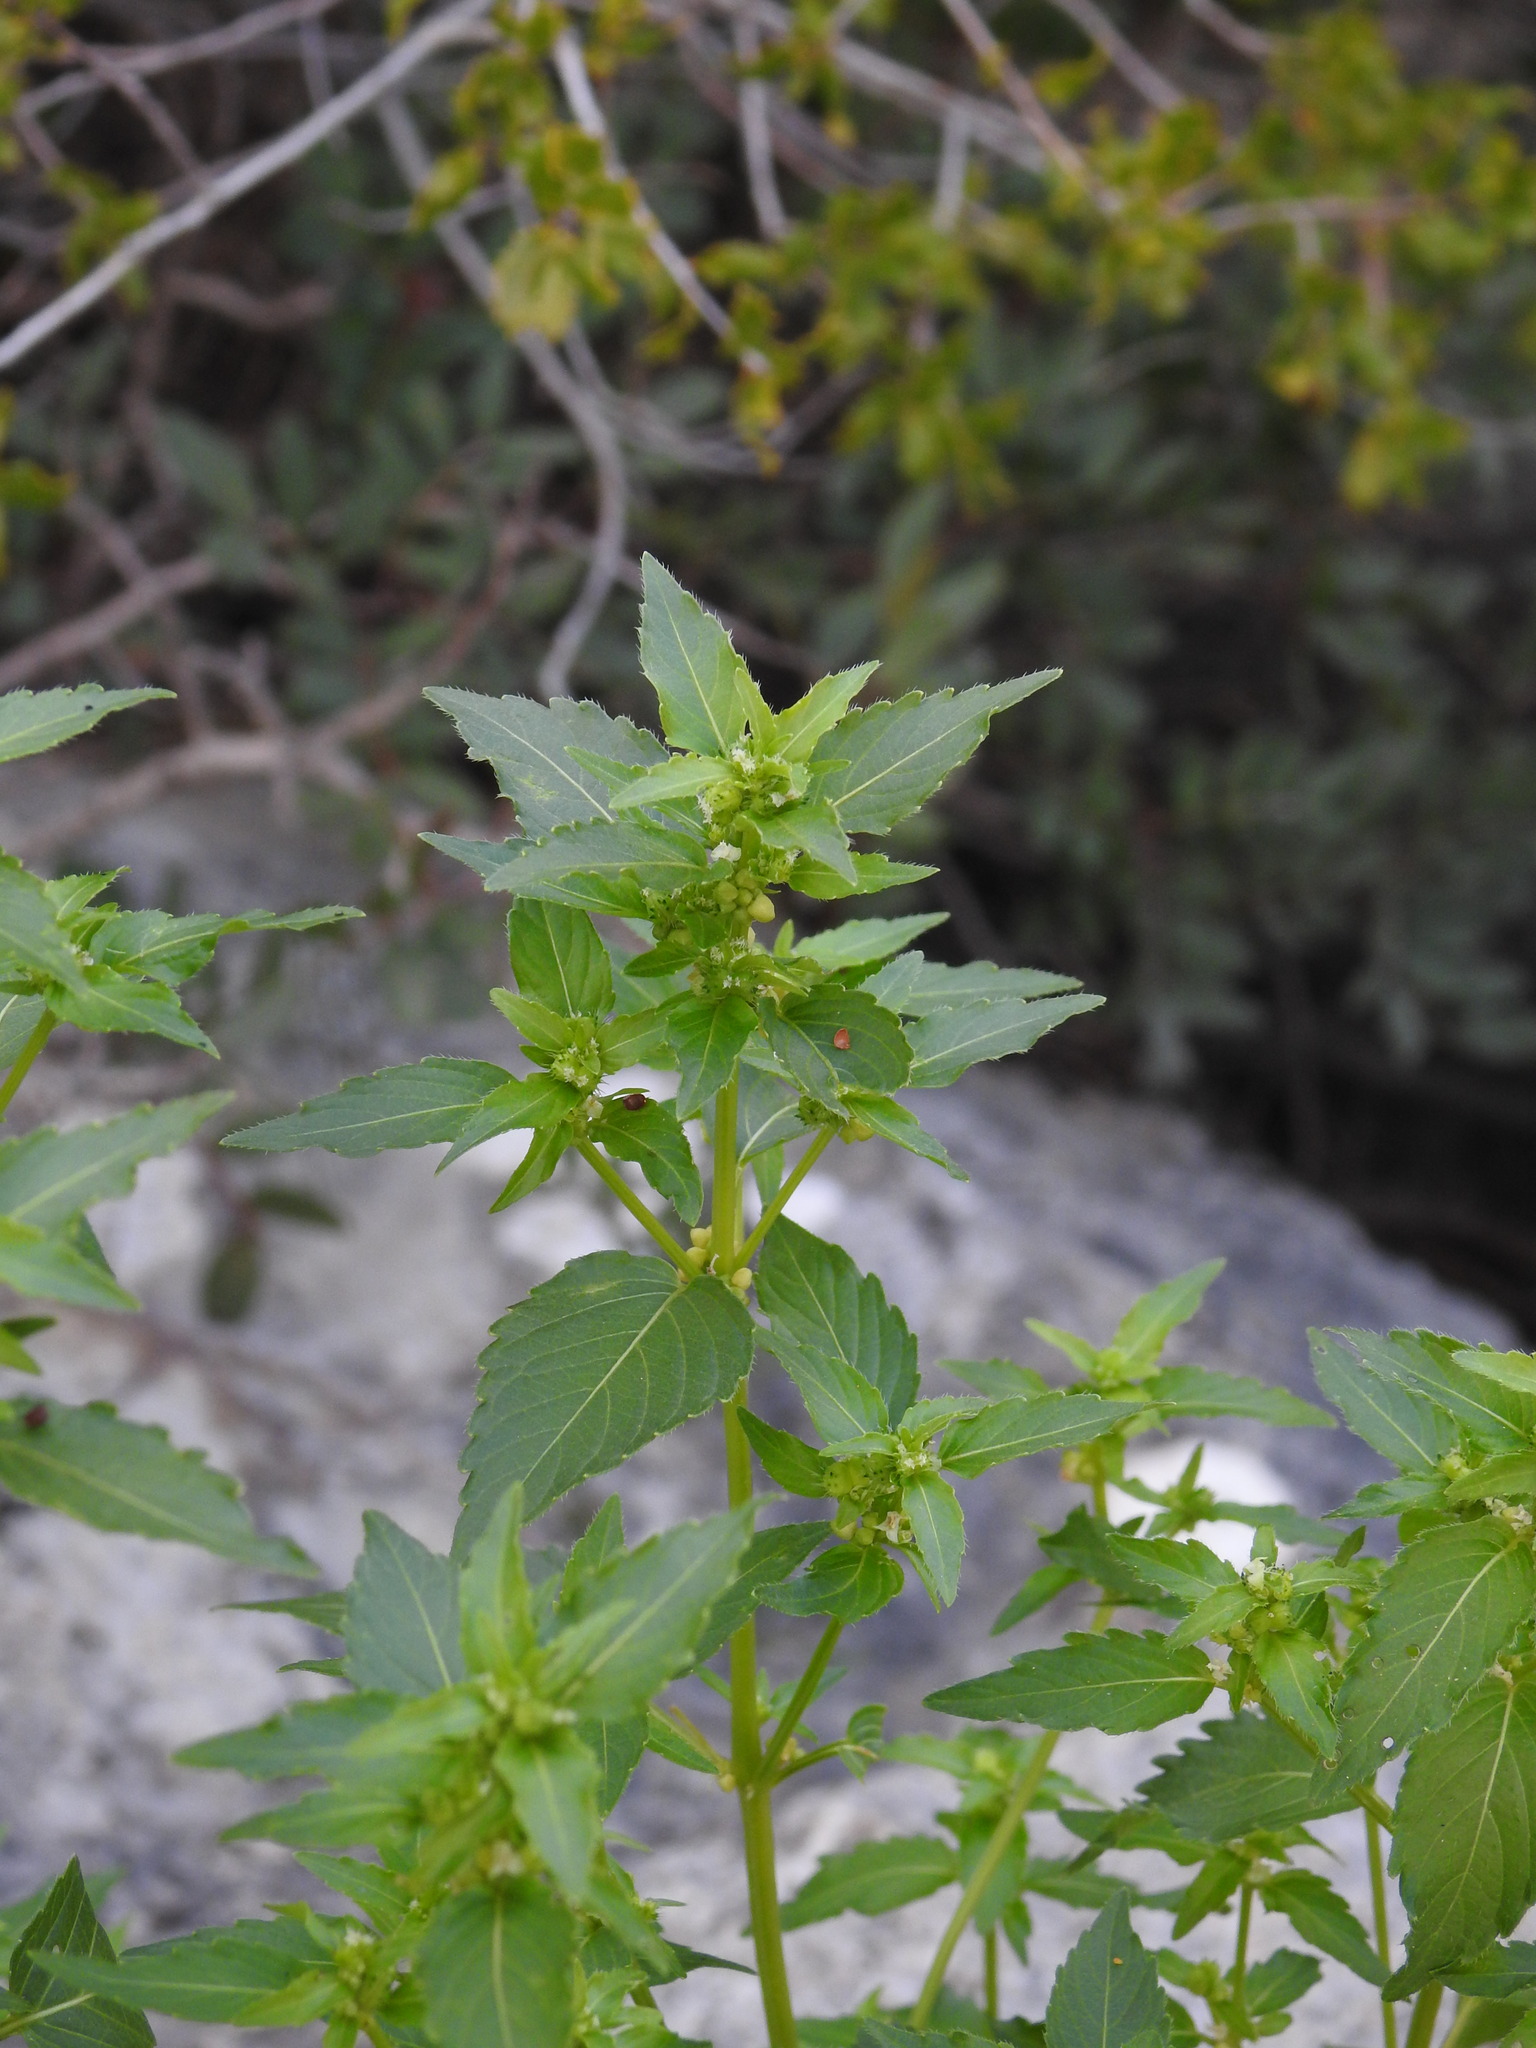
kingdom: Plantae
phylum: Tracheophyta
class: Magnoliopsida
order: Malpighiales
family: Euphorbiaceae
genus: Mercurialis
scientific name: Mercurialis annua
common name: Annual mercury
